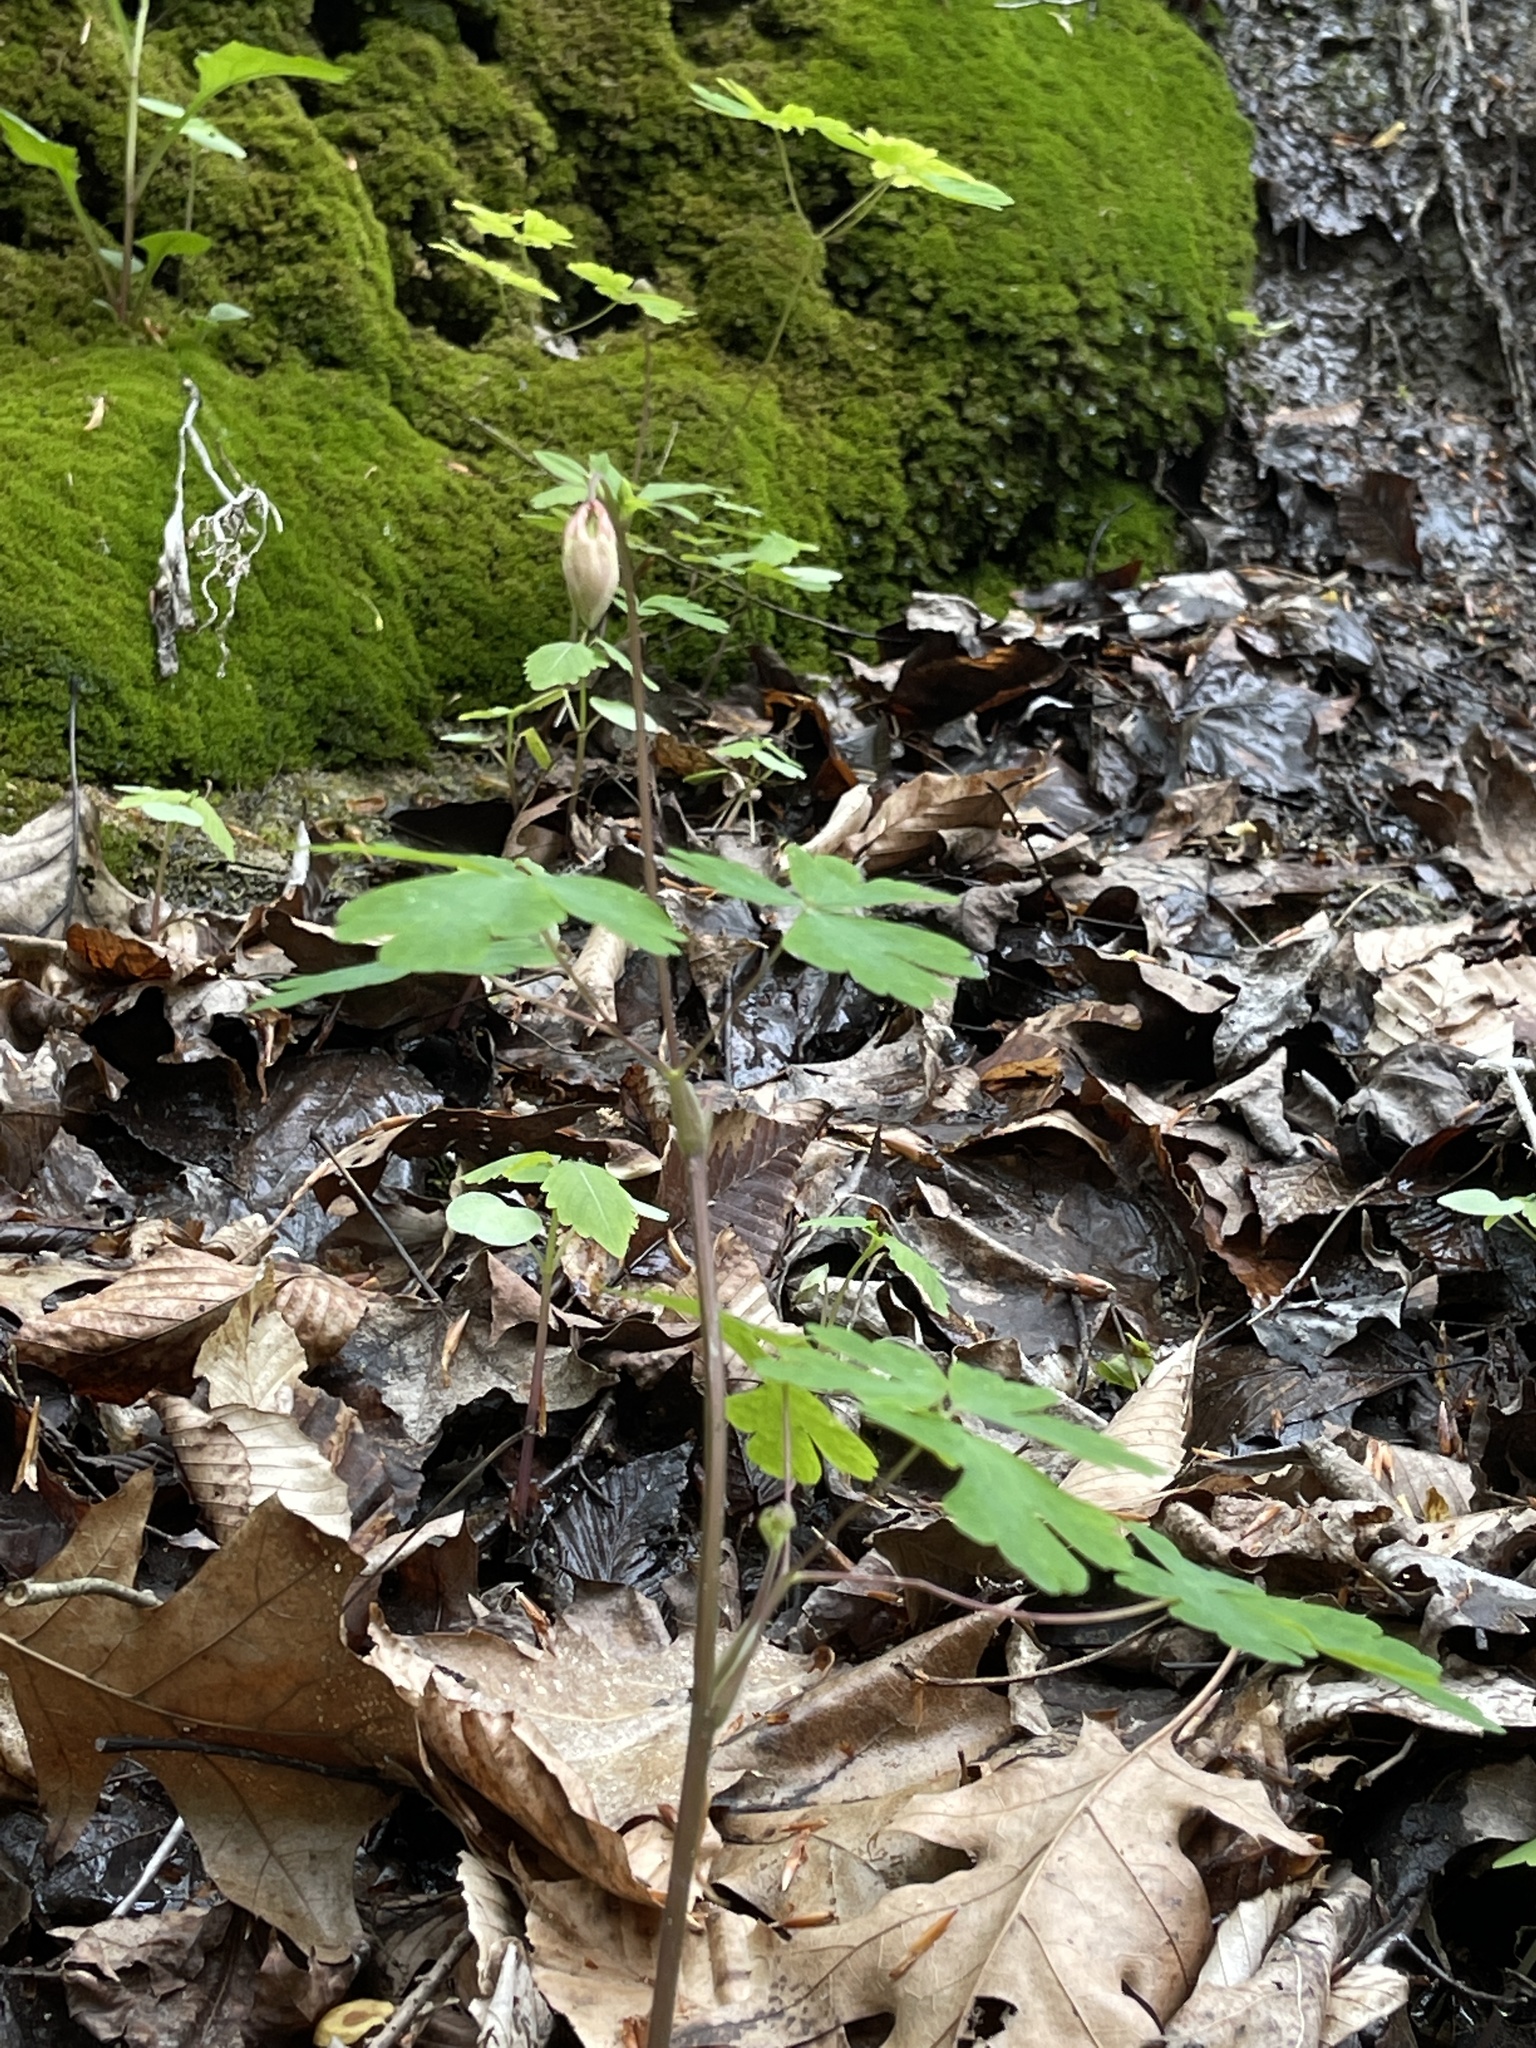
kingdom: Plantae
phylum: Tracheophyta
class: Magnoliopsida
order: Ranunculales
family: Ranunculaceae
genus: Aquilegia
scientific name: Aquilegia canadensis
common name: American columbine
